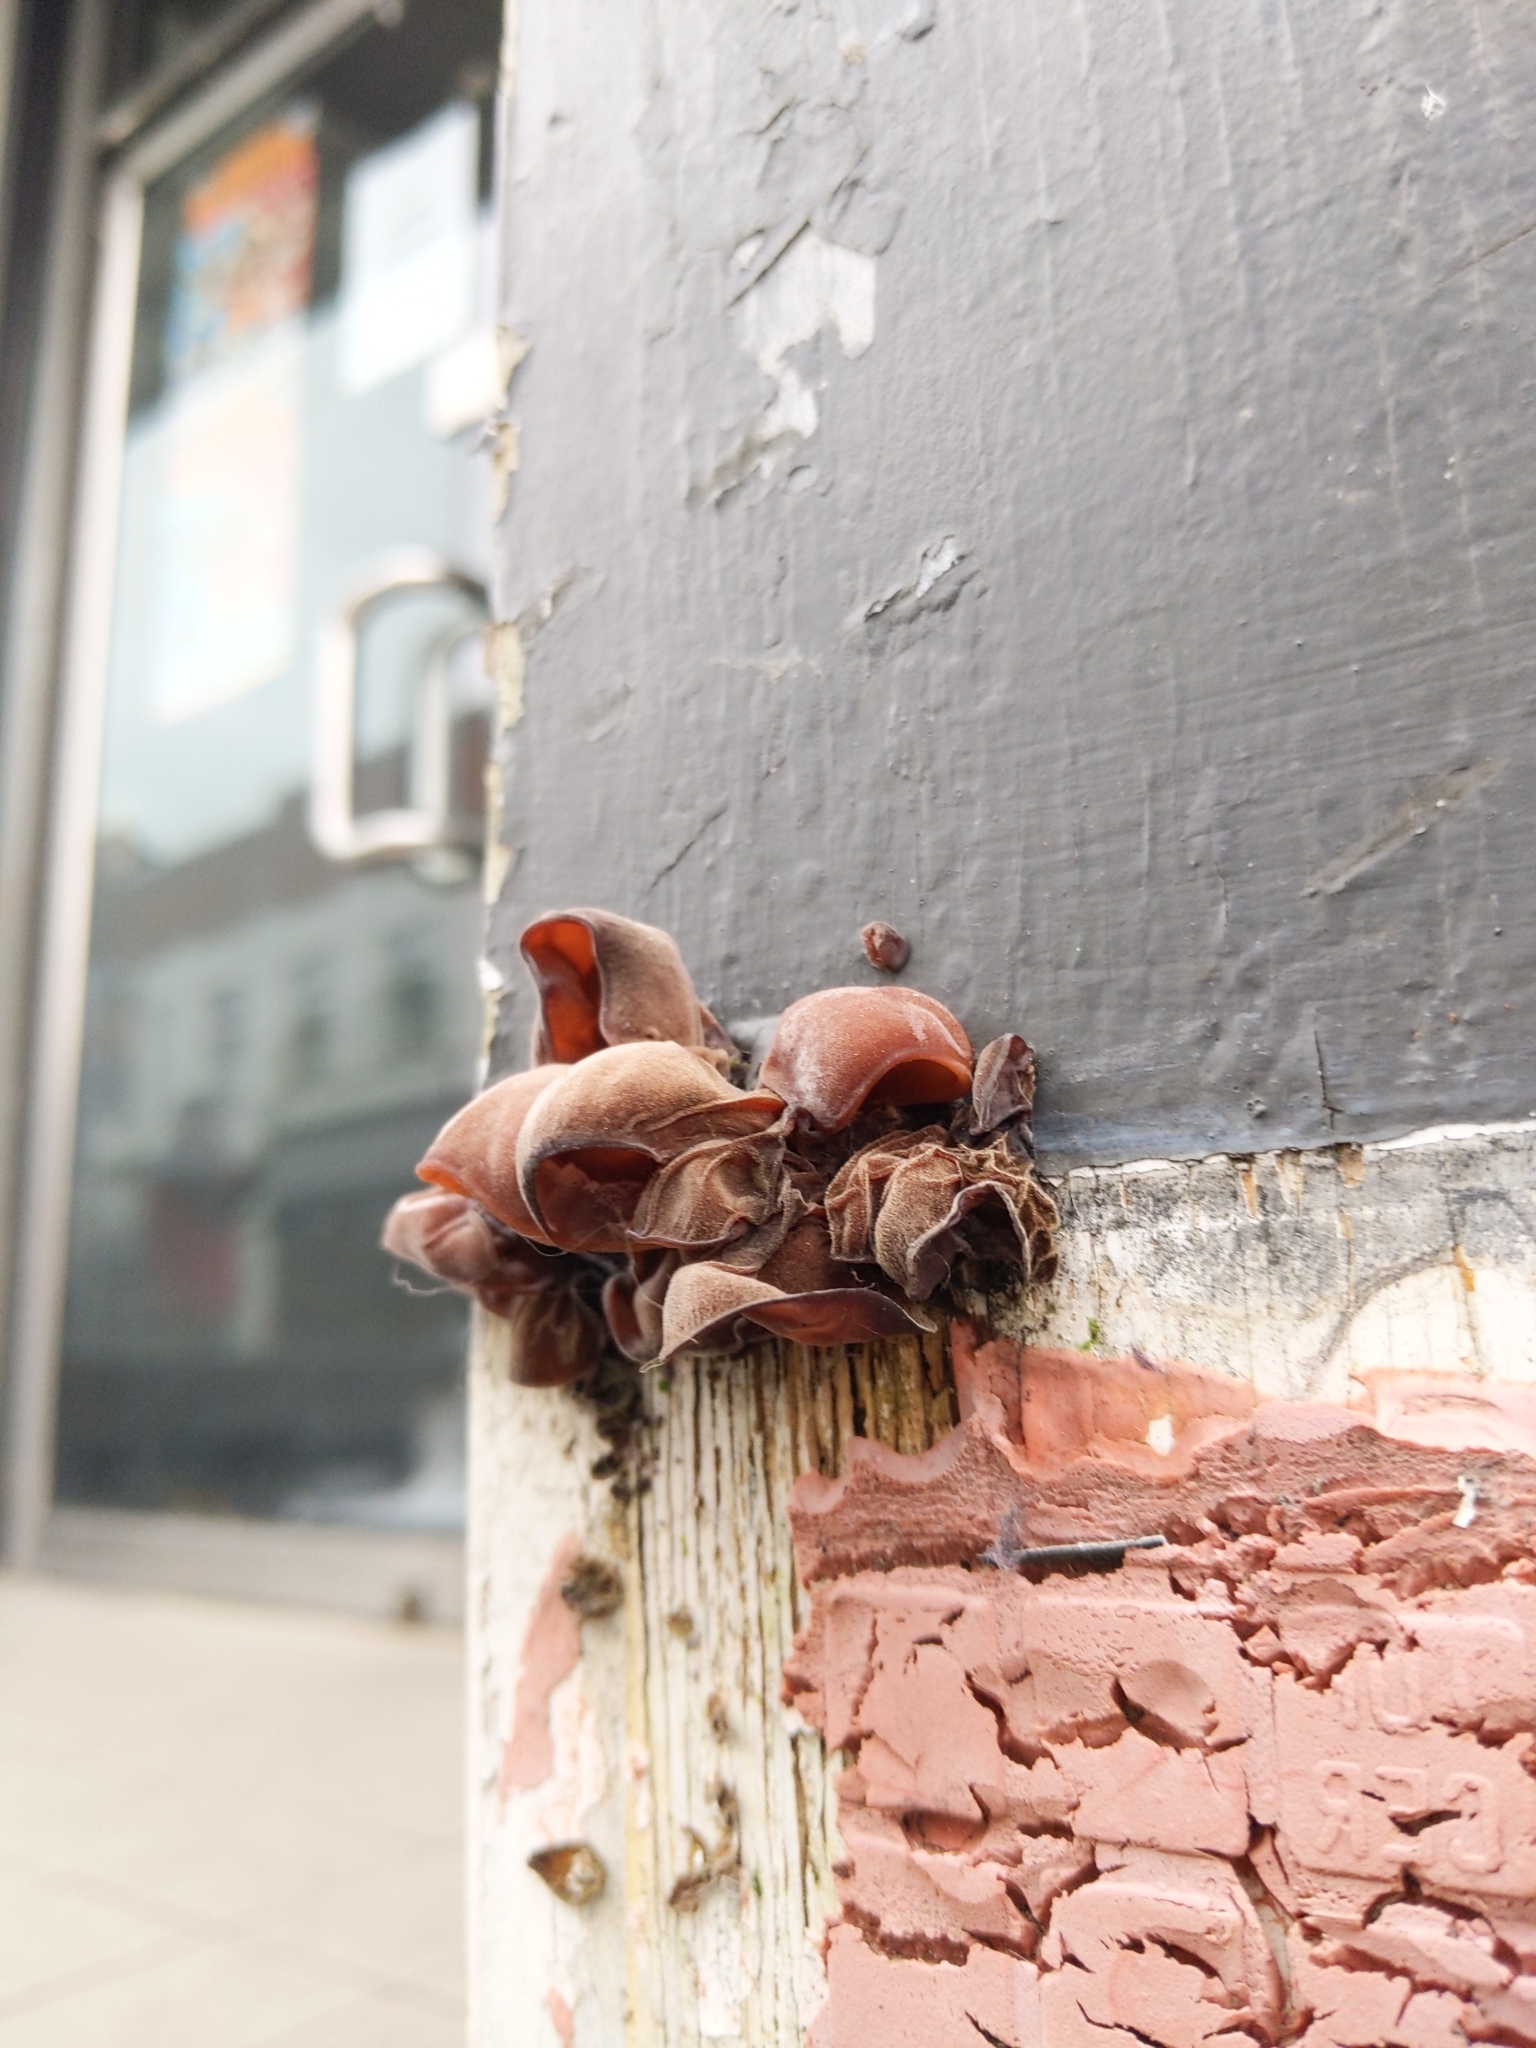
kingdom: Fungi
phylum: Basidiomycota
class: Agaricomycetes
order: Auriculariales
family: Auriculariaceae
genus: Auricularia
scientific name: Auricularia auricula-judae
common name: Jelly ear
